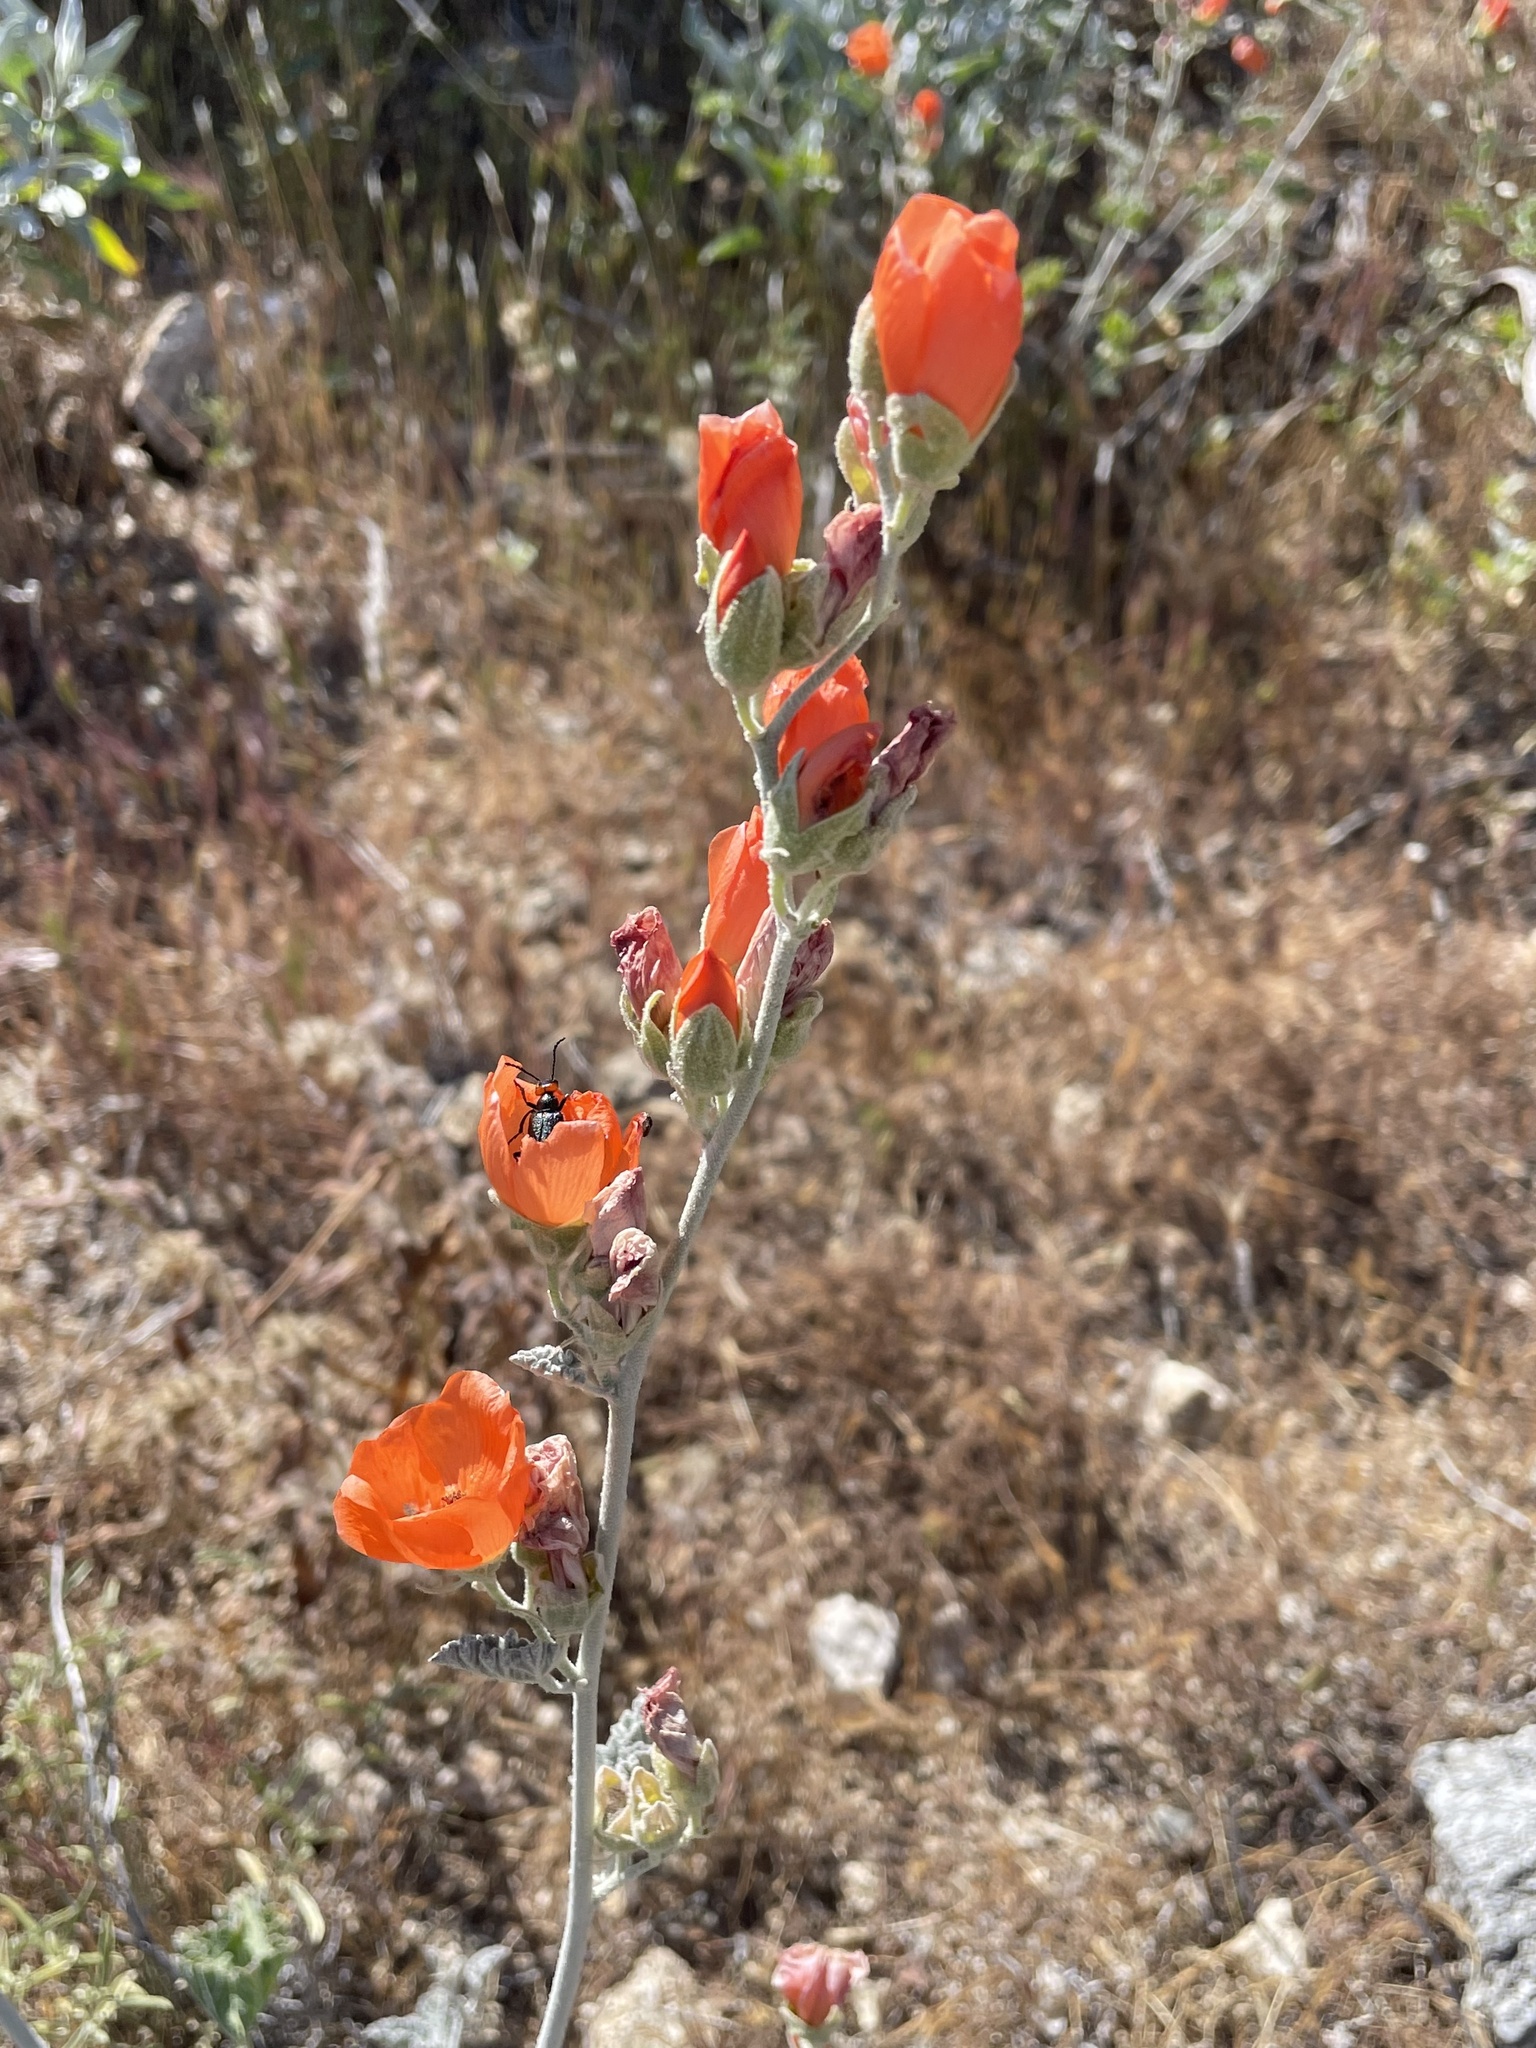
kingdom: Plantae
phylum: Tracheophyta
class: Magnoliopsida
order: Malvales
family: Malvaceae
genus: Sphaeralcea
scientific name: Sphaeralcea ambigua
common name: Apricot globe-mallow
